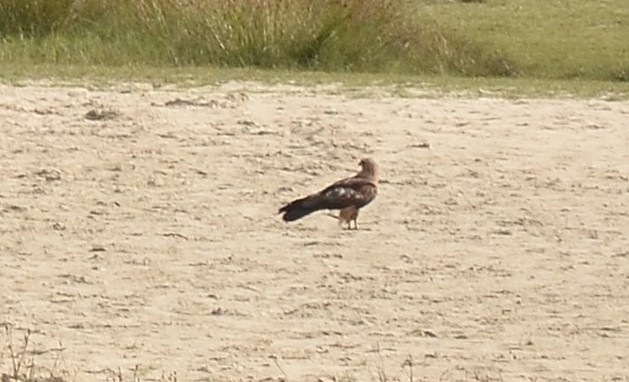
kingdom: Animalia
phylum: Chordata
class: Aves
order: Accipitriformes
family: Accipitridae
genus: Milvus
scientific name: Milvus migrans
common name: Black kite
